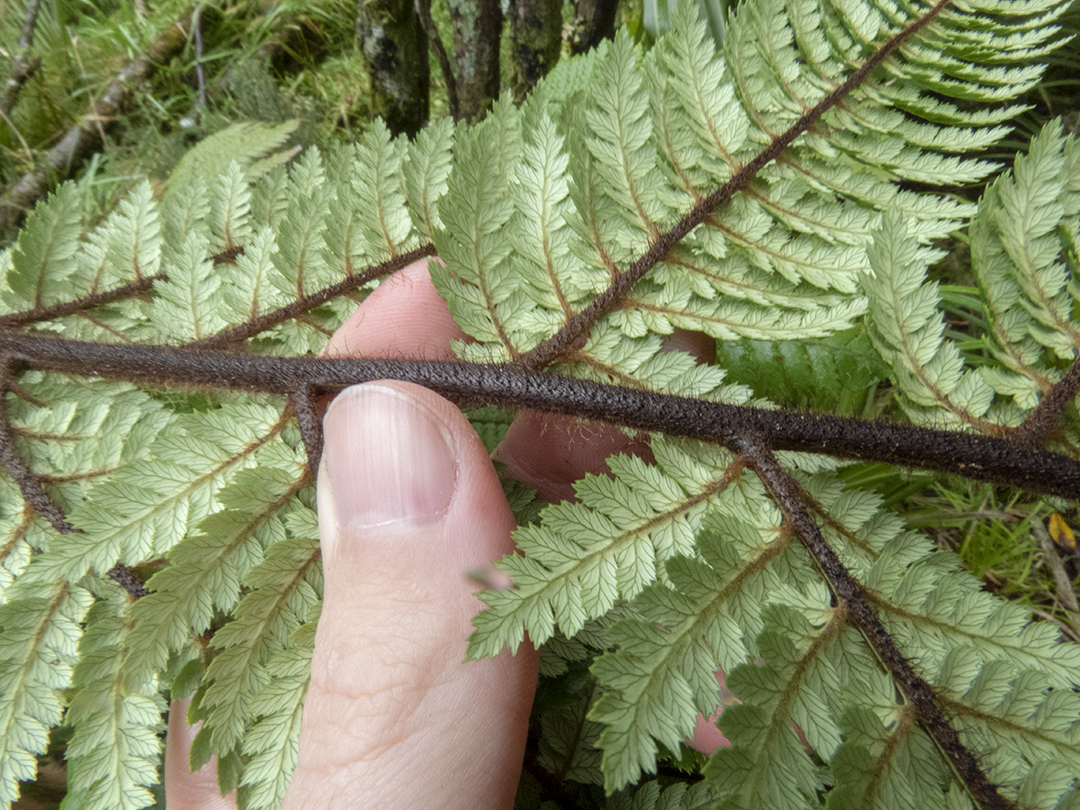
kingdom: Plantae
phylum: Tracheophyta
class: Polypodiopsida
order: Cyatheales
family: Dicksoniaceae
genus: Dicksonia
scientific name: Dicksonia squarrosa
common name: Hard treefern
